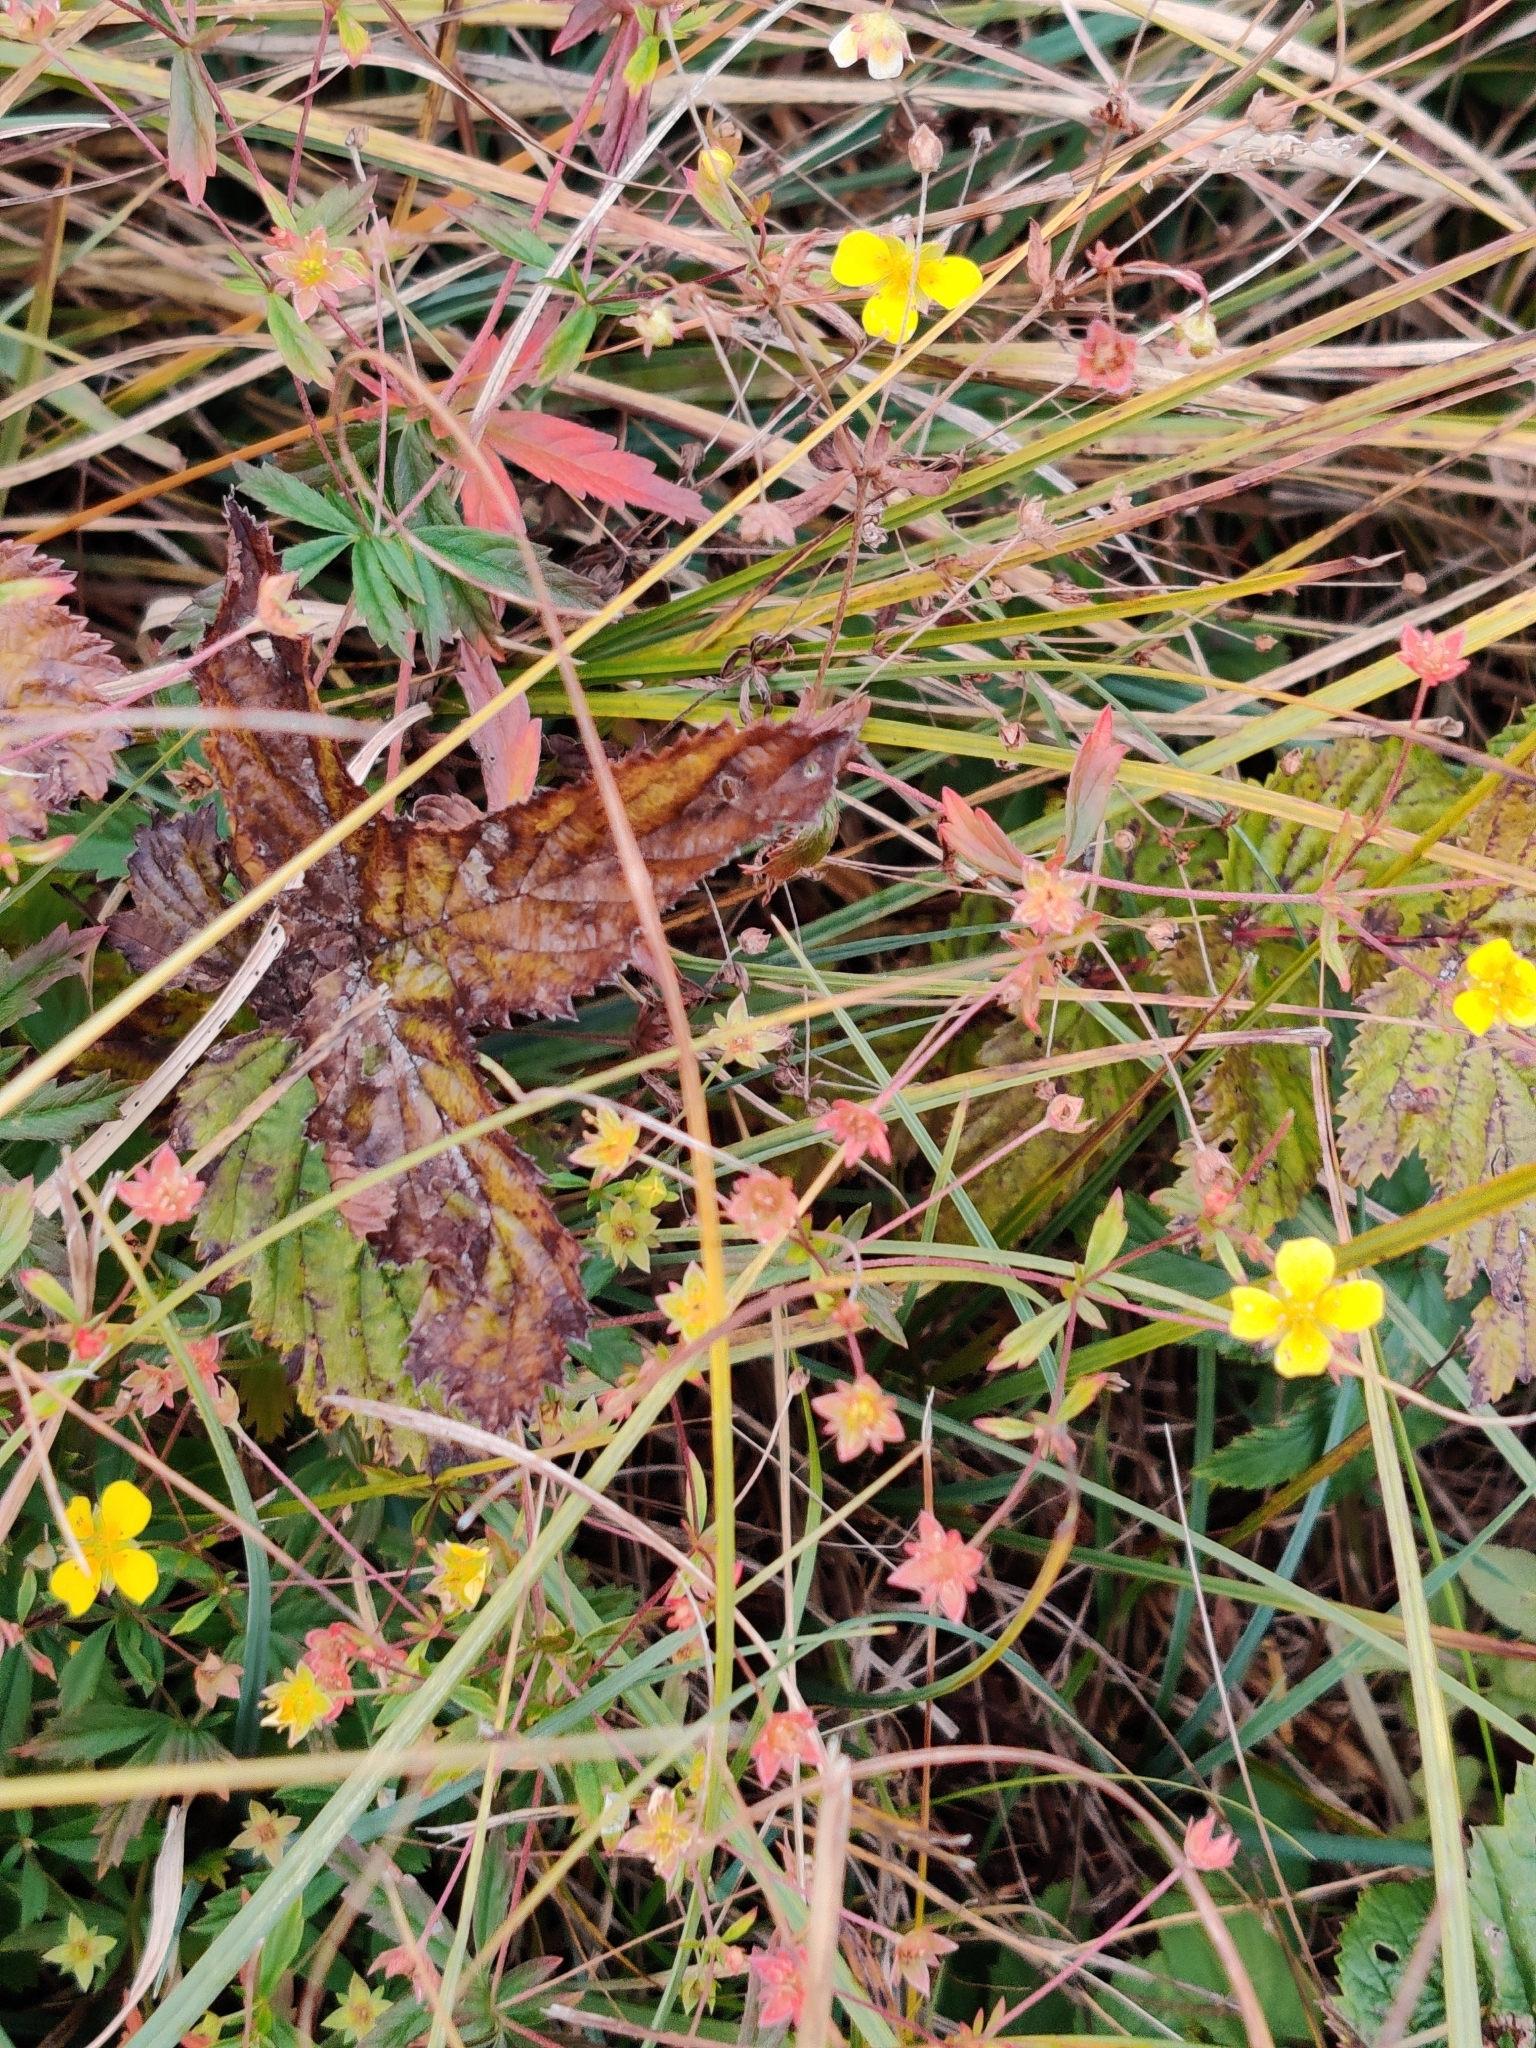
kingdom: Plantae
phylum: Tracheophyta
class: Magnoliopsida
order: Rosales
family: Rosaceae
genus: Potentilla
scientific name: Potentilla erecta
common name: Tormentil
